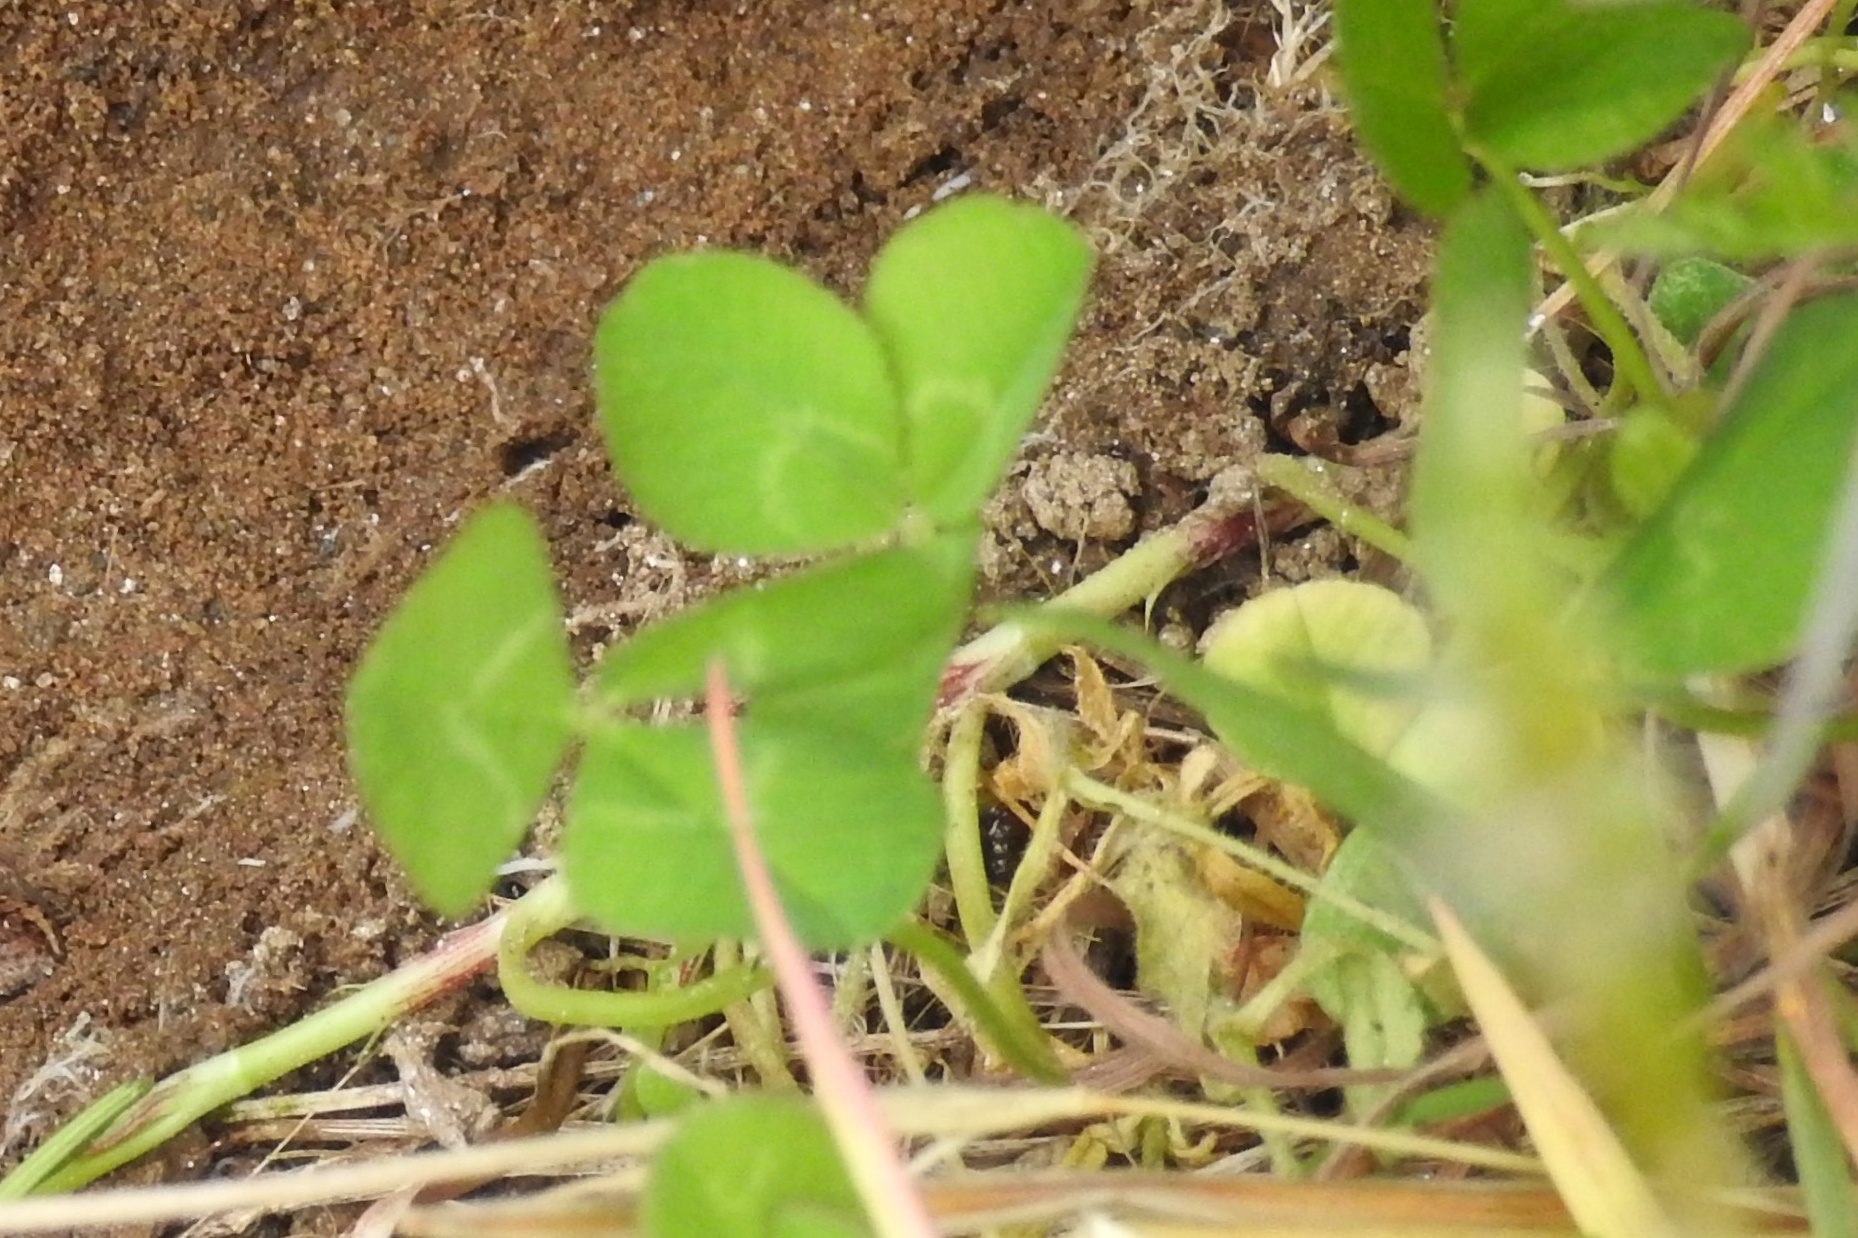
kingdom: Plantae
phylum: Tracheophyta
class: Magnoliopsida
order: Fabales
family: Fabaceae
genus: Trifolium
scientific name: Trifolium repens
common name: White clover
